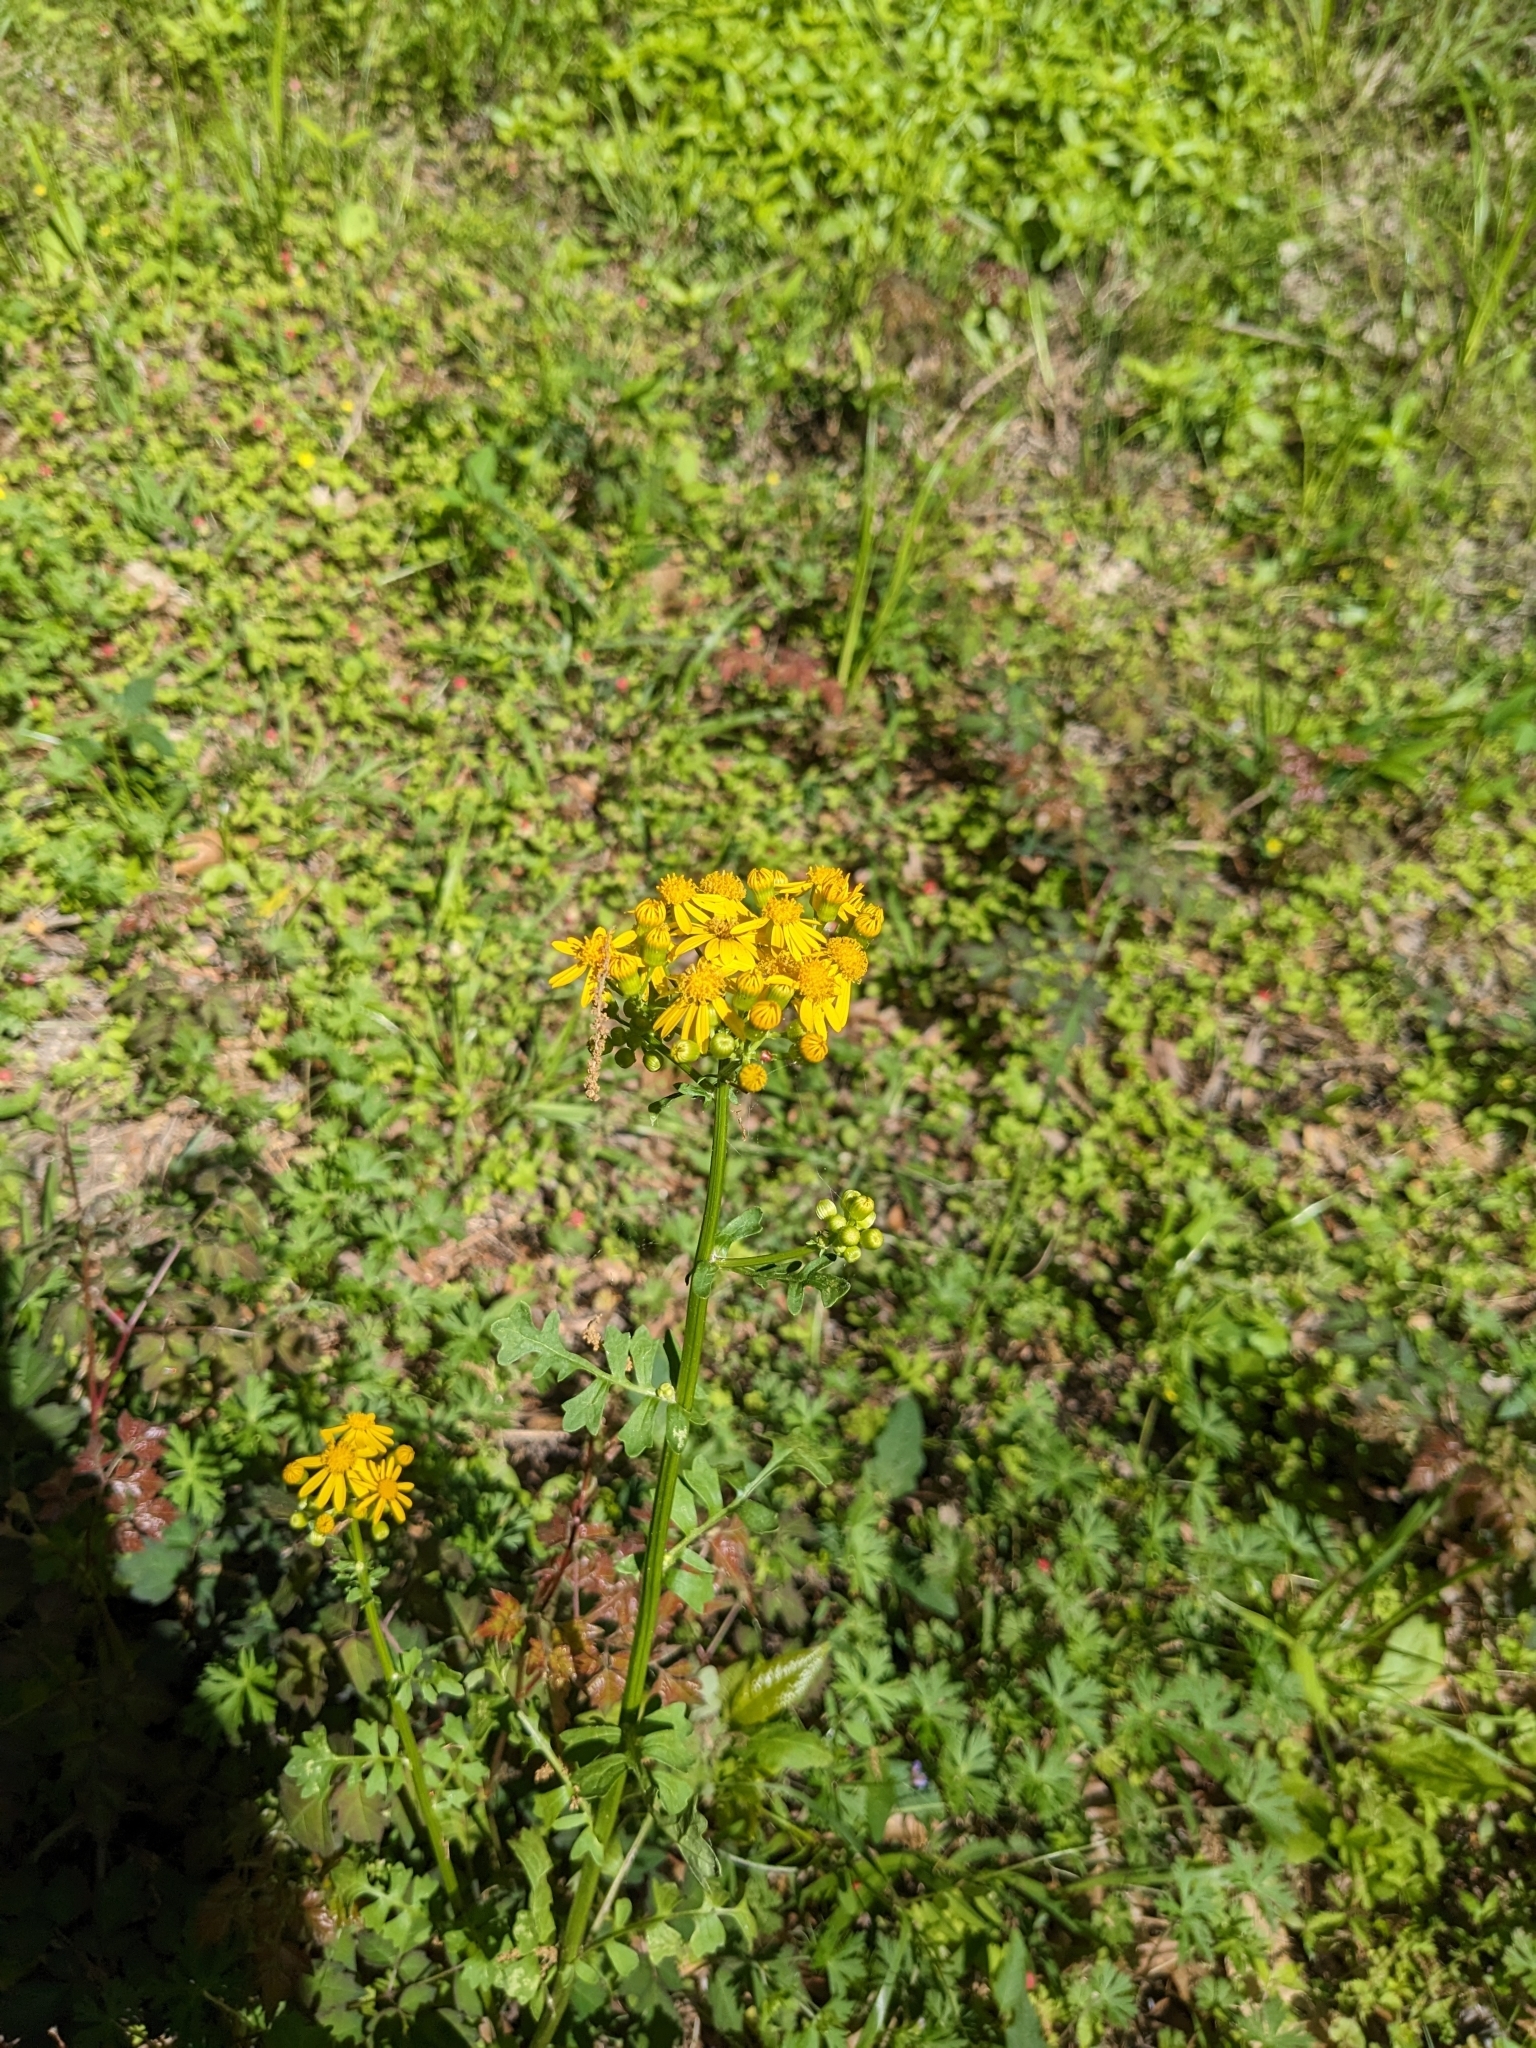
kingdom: Plantae
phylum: Tracheophyta
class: Magnoliopsida
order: Asterales
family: Asteraceae
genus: Packera
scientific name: Packera glabella
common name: Butterweed
